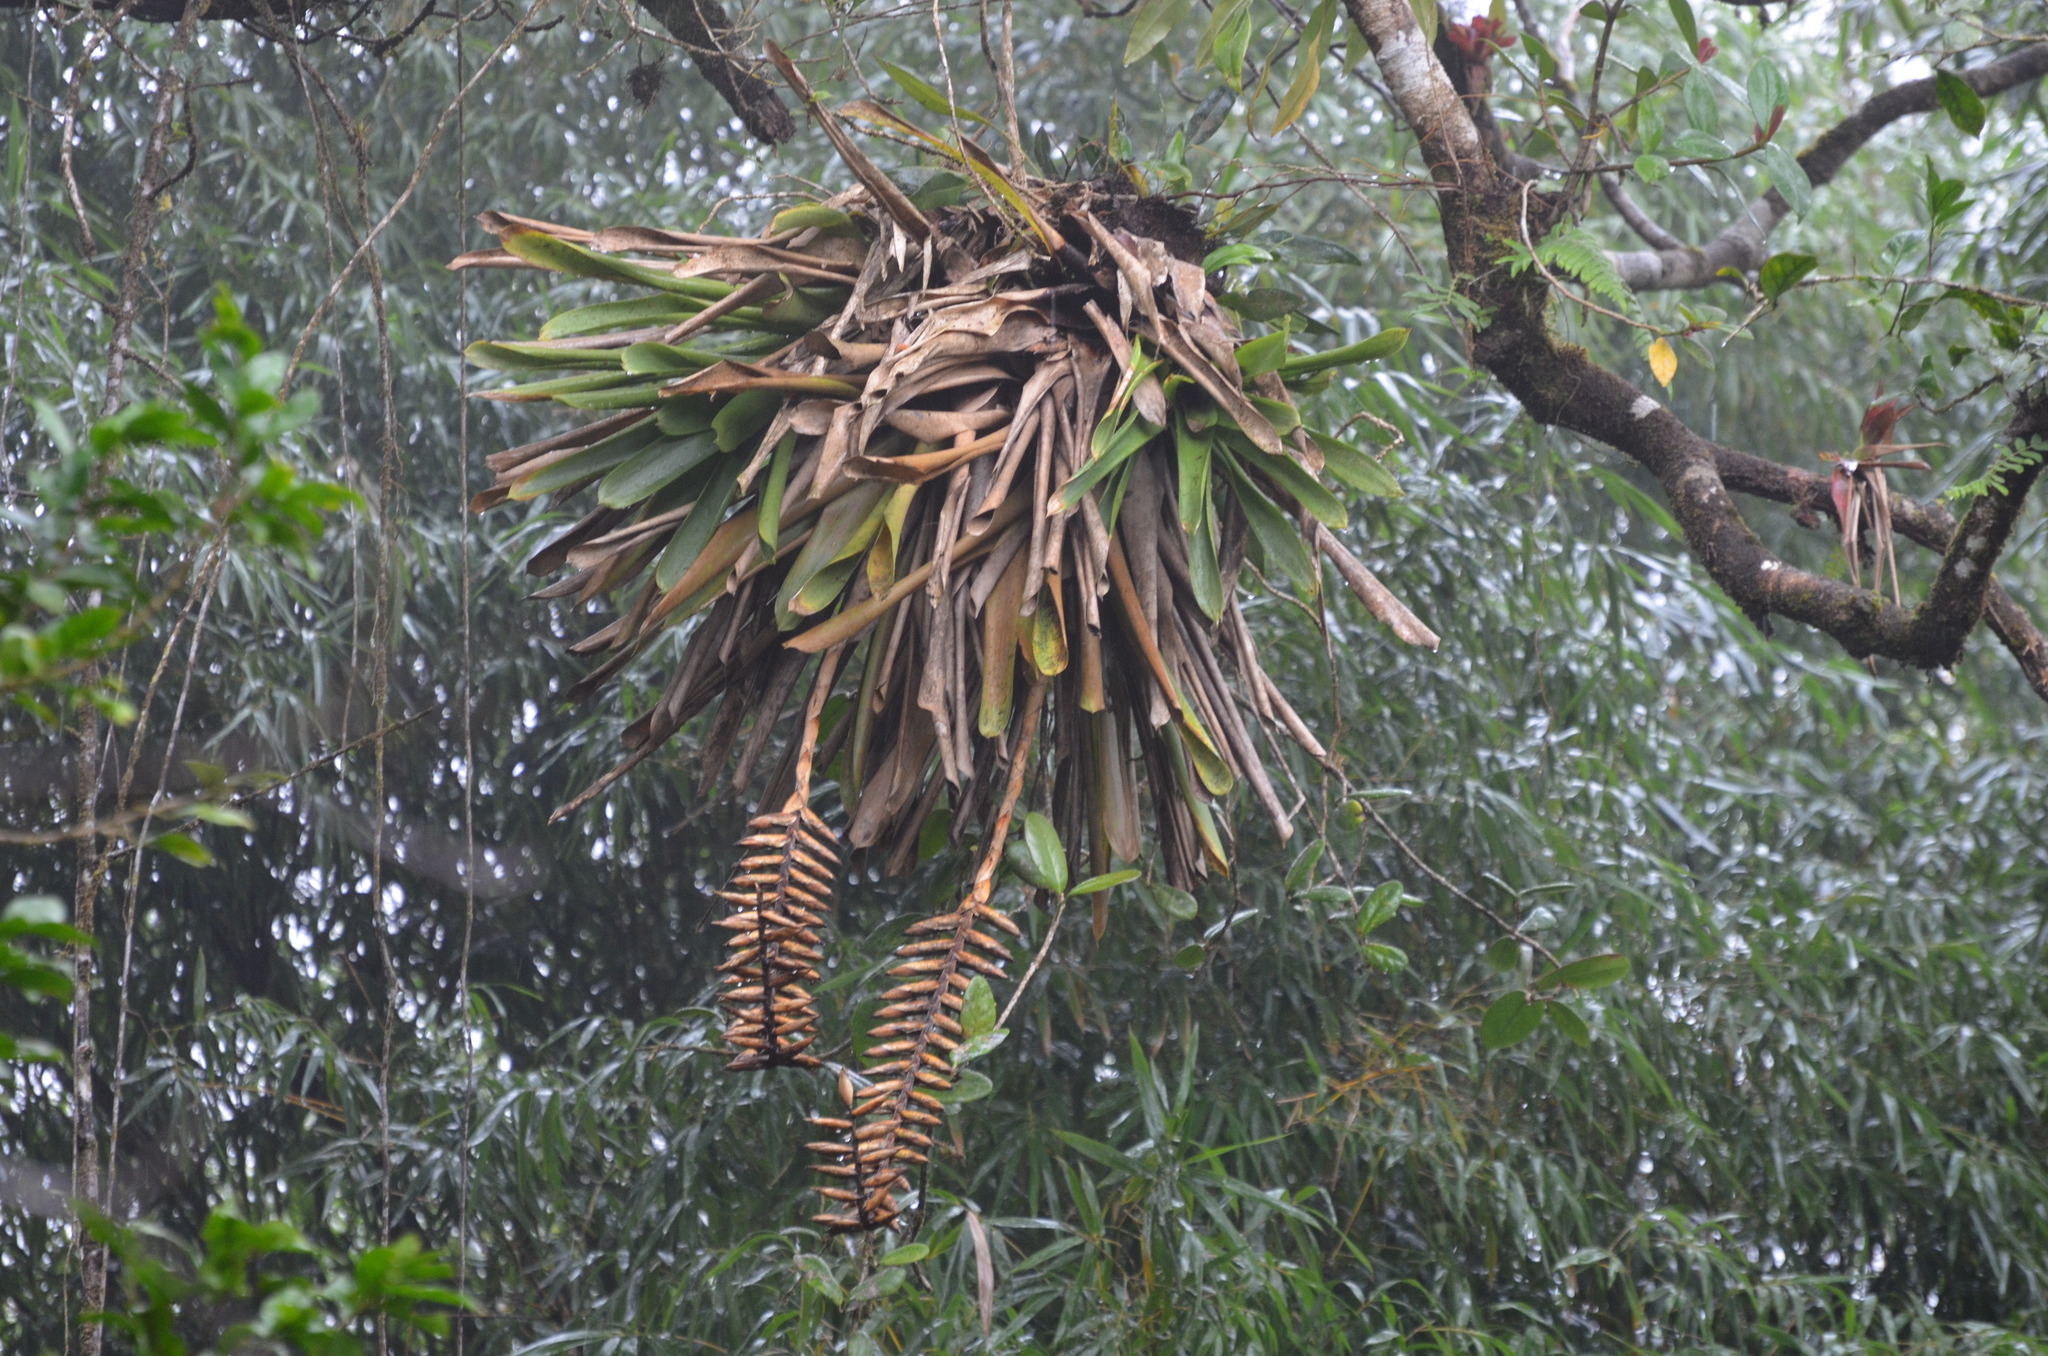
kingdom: Plantae
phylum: Tracheophyta
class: Liliopsida
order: Poales
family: Bromeliaceae
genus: Vriesea
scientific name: Vriesea macrostachya
